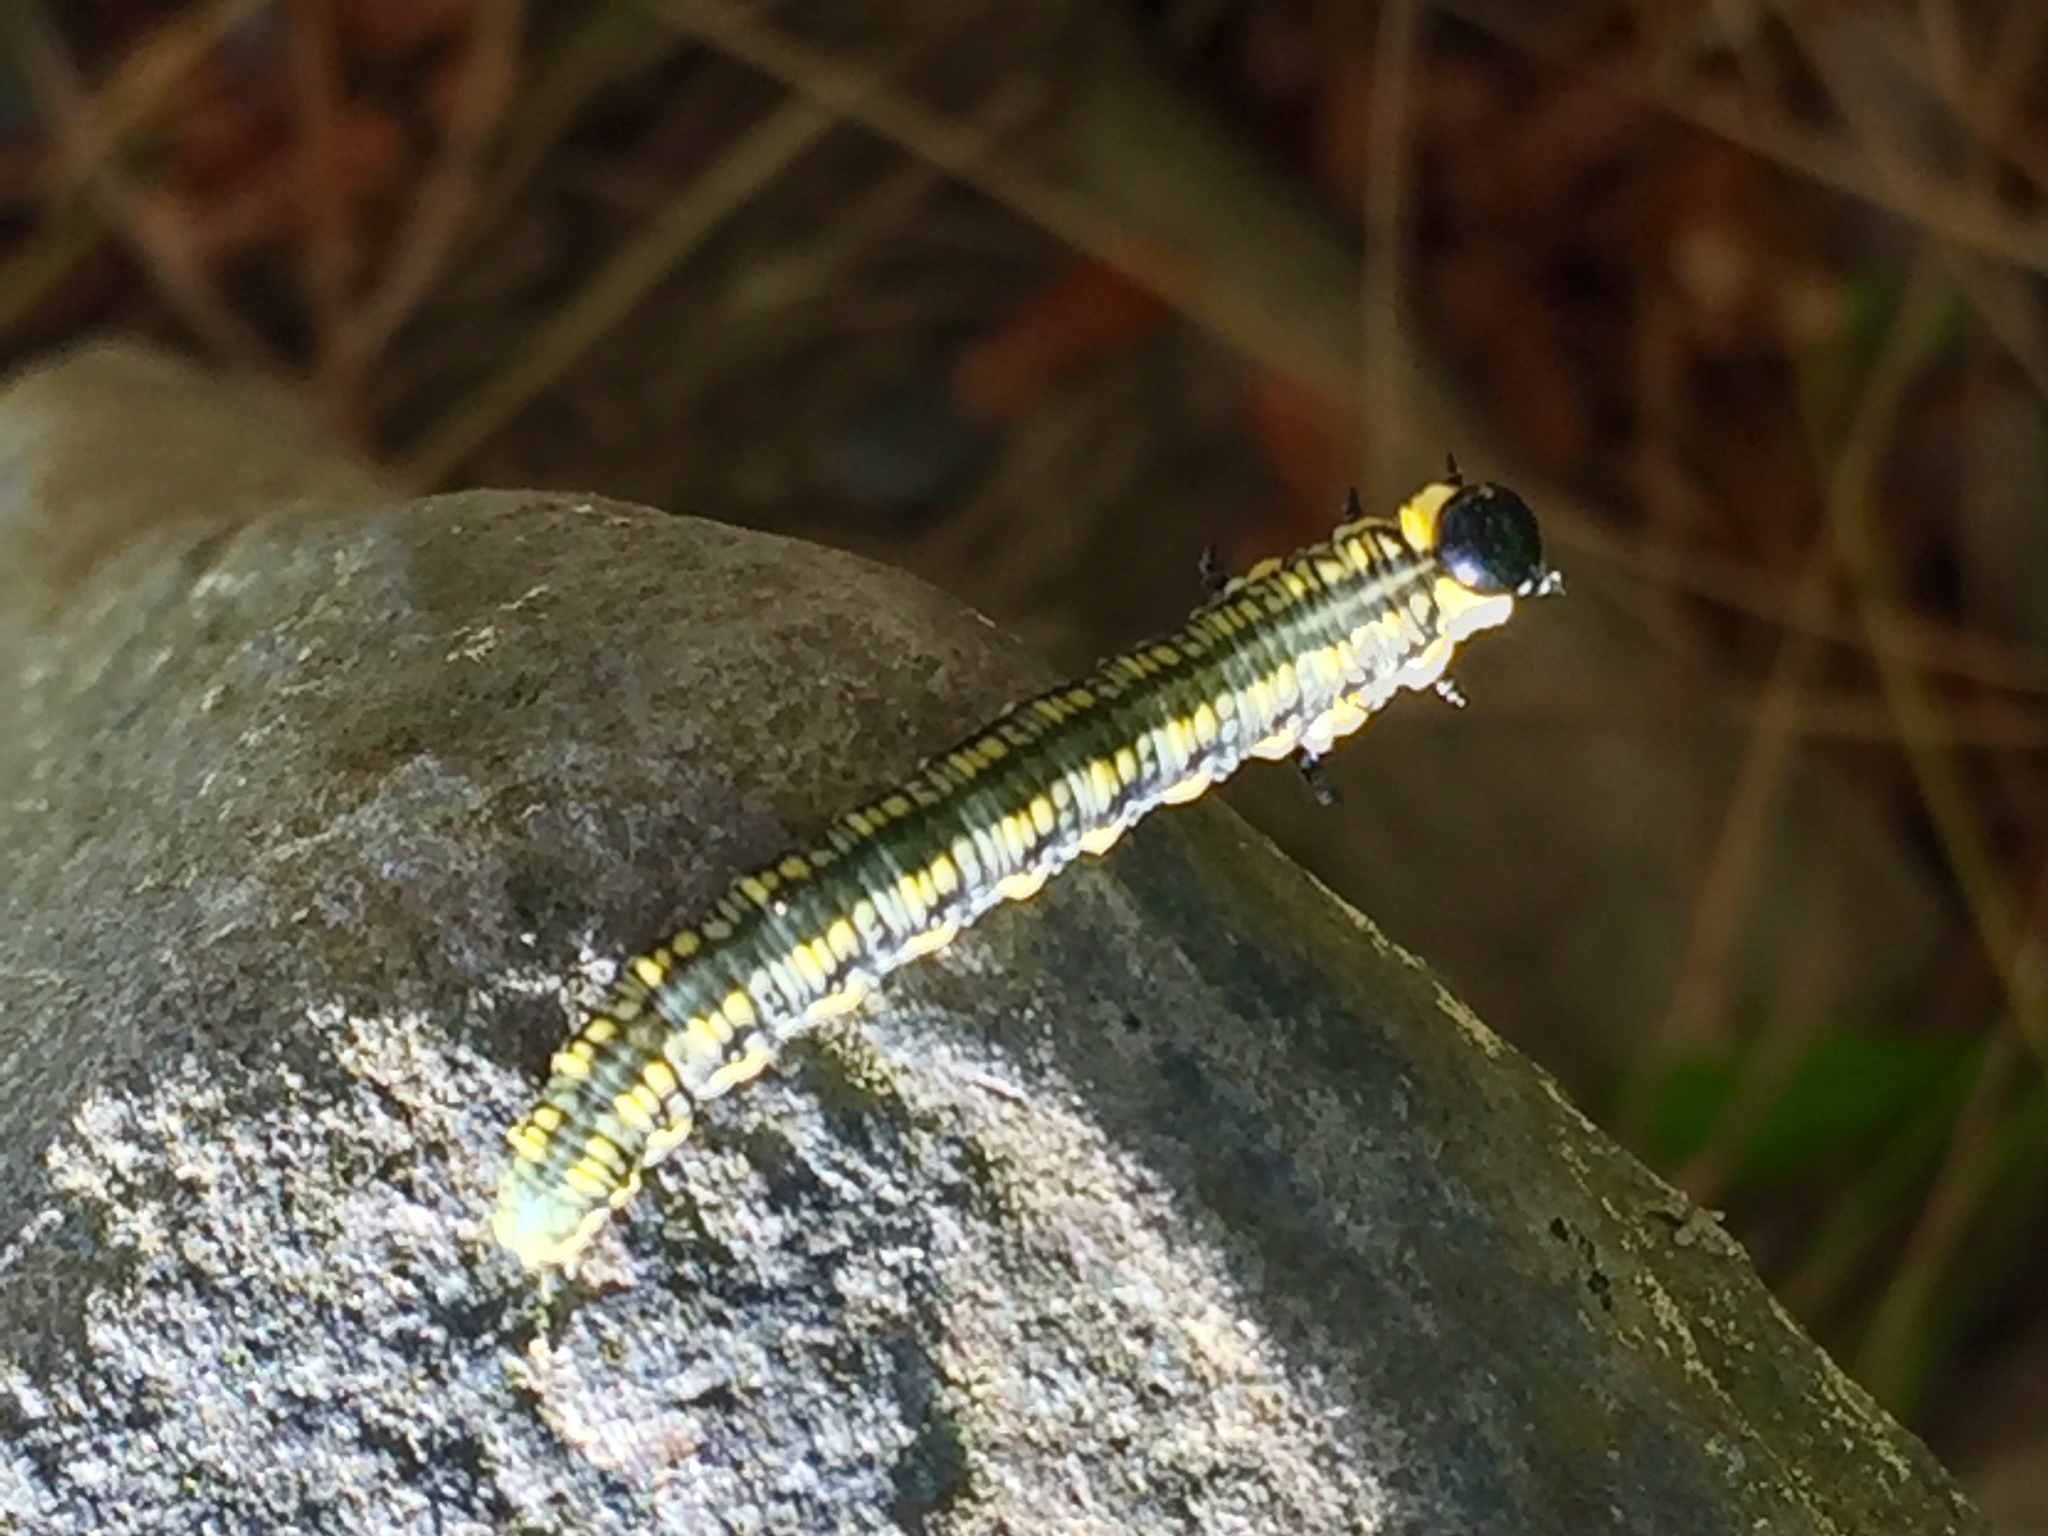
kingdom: Animalia
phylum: Arthropoda
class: Insecta
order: Hymenoptera
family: Diprionidae
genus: Diprion
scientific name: Diprion similis
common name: Pine sawfly
